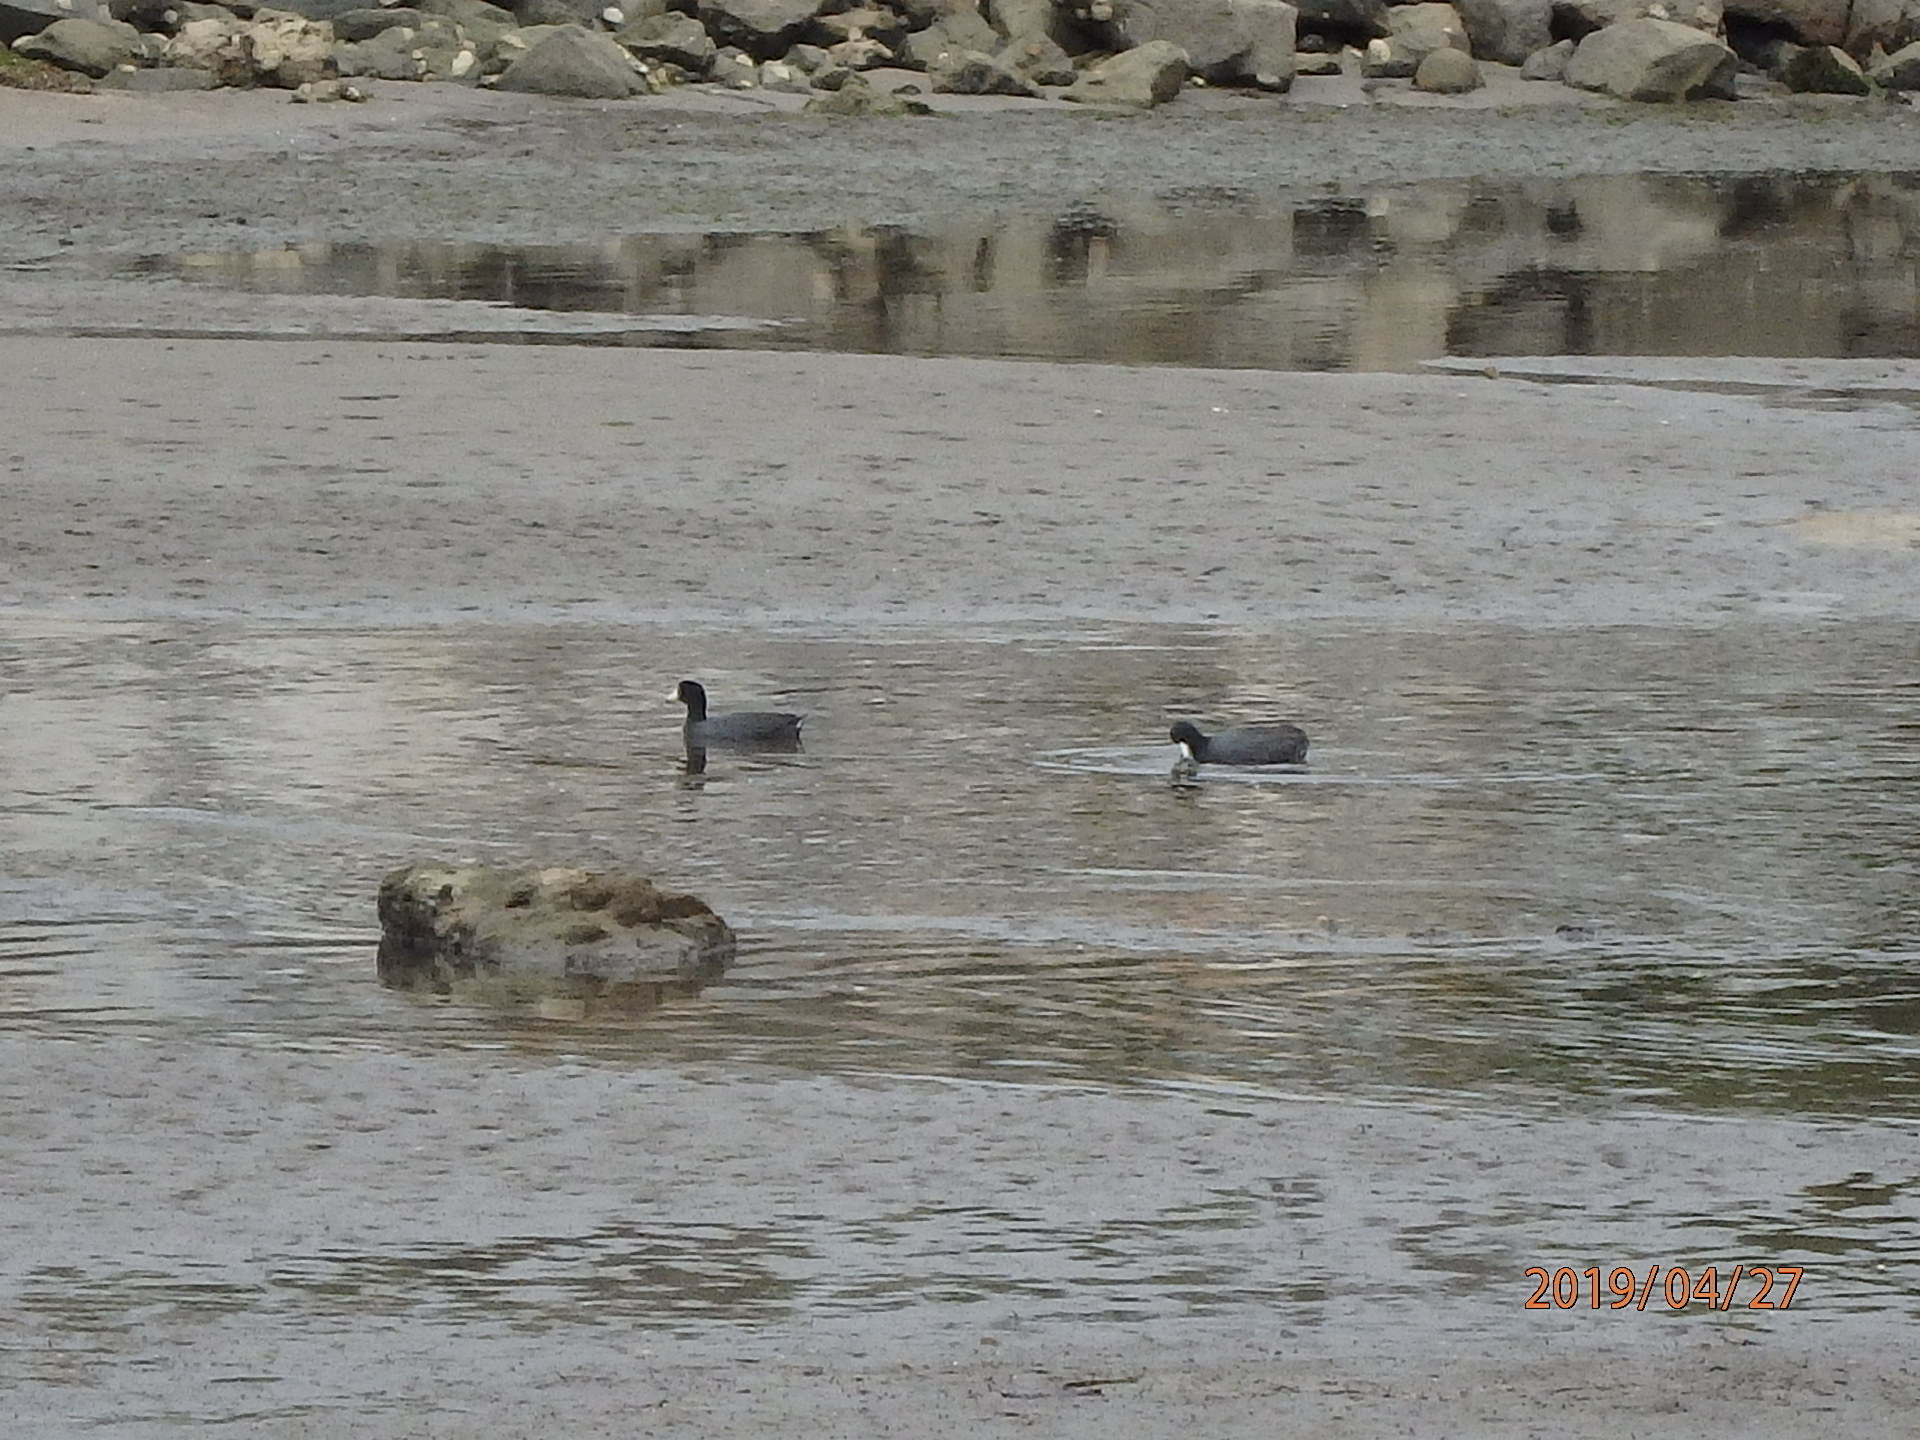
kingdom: Animalia
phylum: Chordata
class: Aves
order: Gruiformes
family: Rallidae
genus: Fulica
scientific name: Fulica americana
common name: American coot
